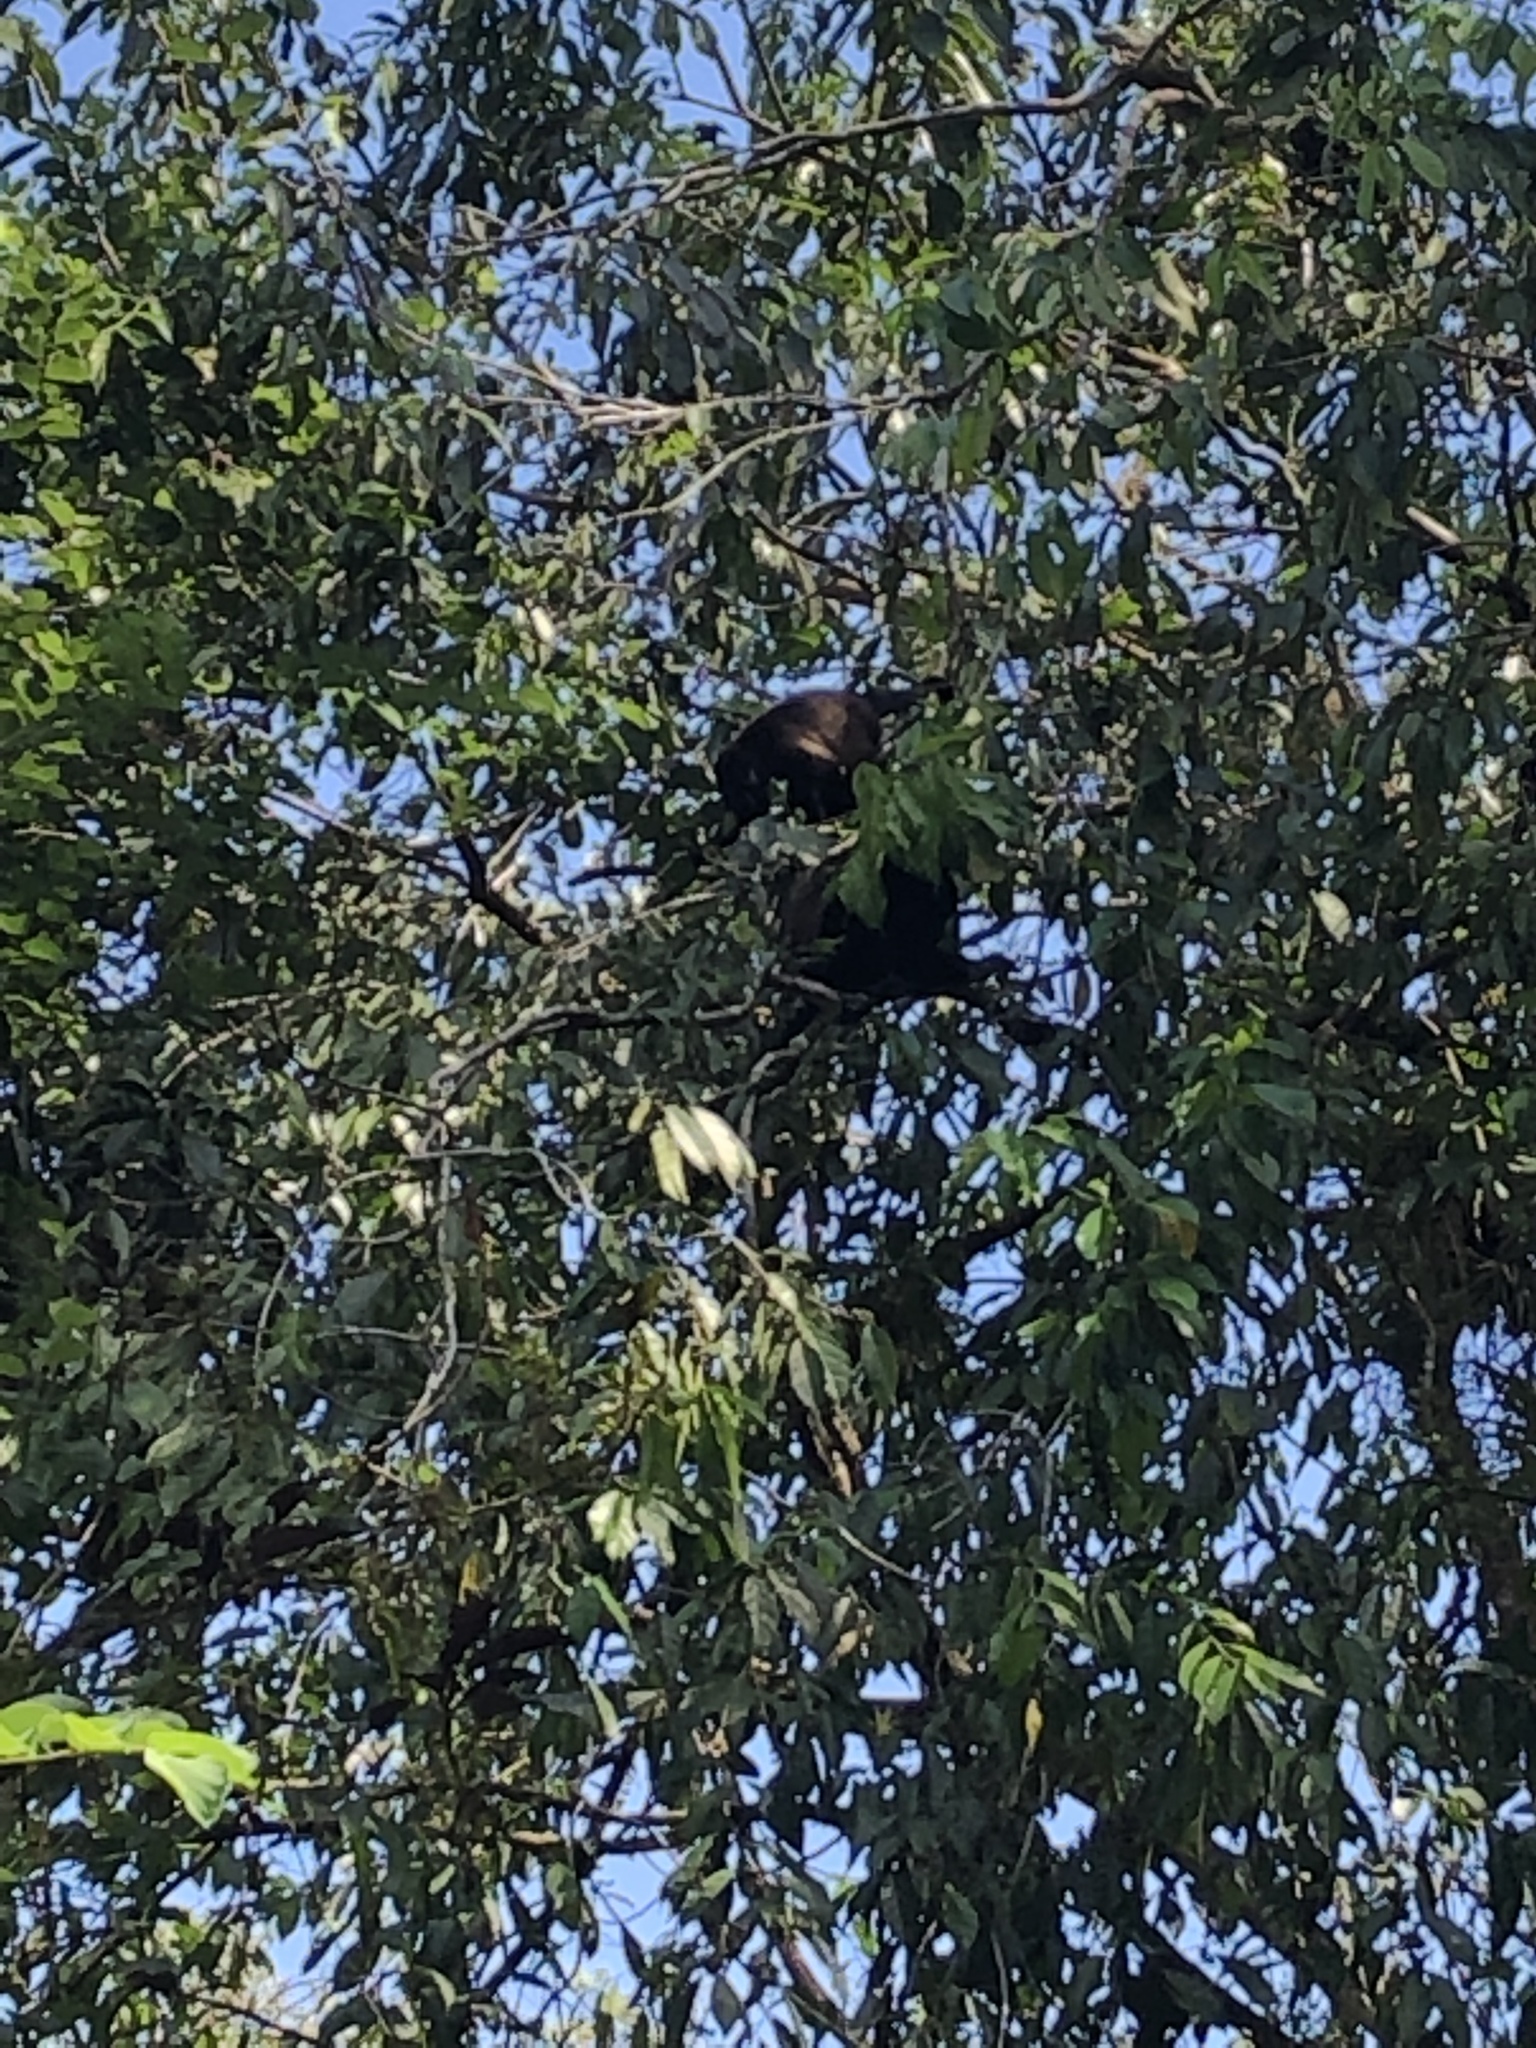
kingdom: Animalia
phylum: Chordata
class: Mammalia
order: Primates
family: Atelidae
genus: Alouatta
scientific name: Alouatta palliata
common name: Mantled howler
